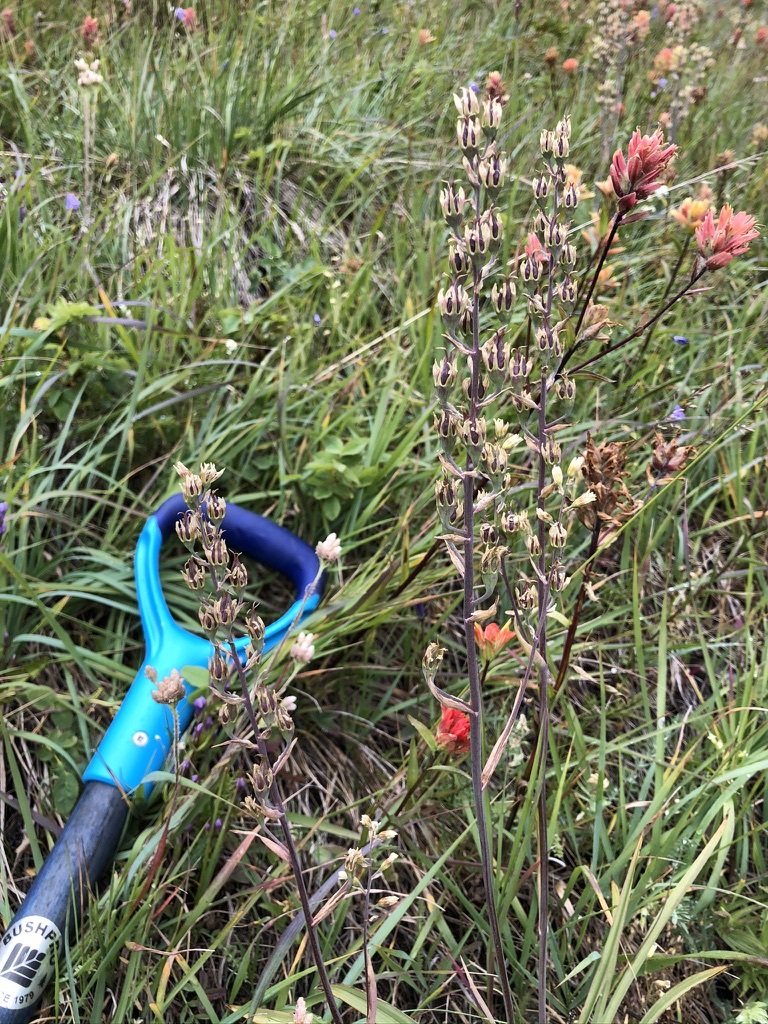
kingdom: Plantae
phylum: Tracheophyta
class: Liliopsida
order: Liliales
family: Melanthiaceae
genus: Anticlea
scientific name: Anticlea elegans
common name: Mountain death camas
